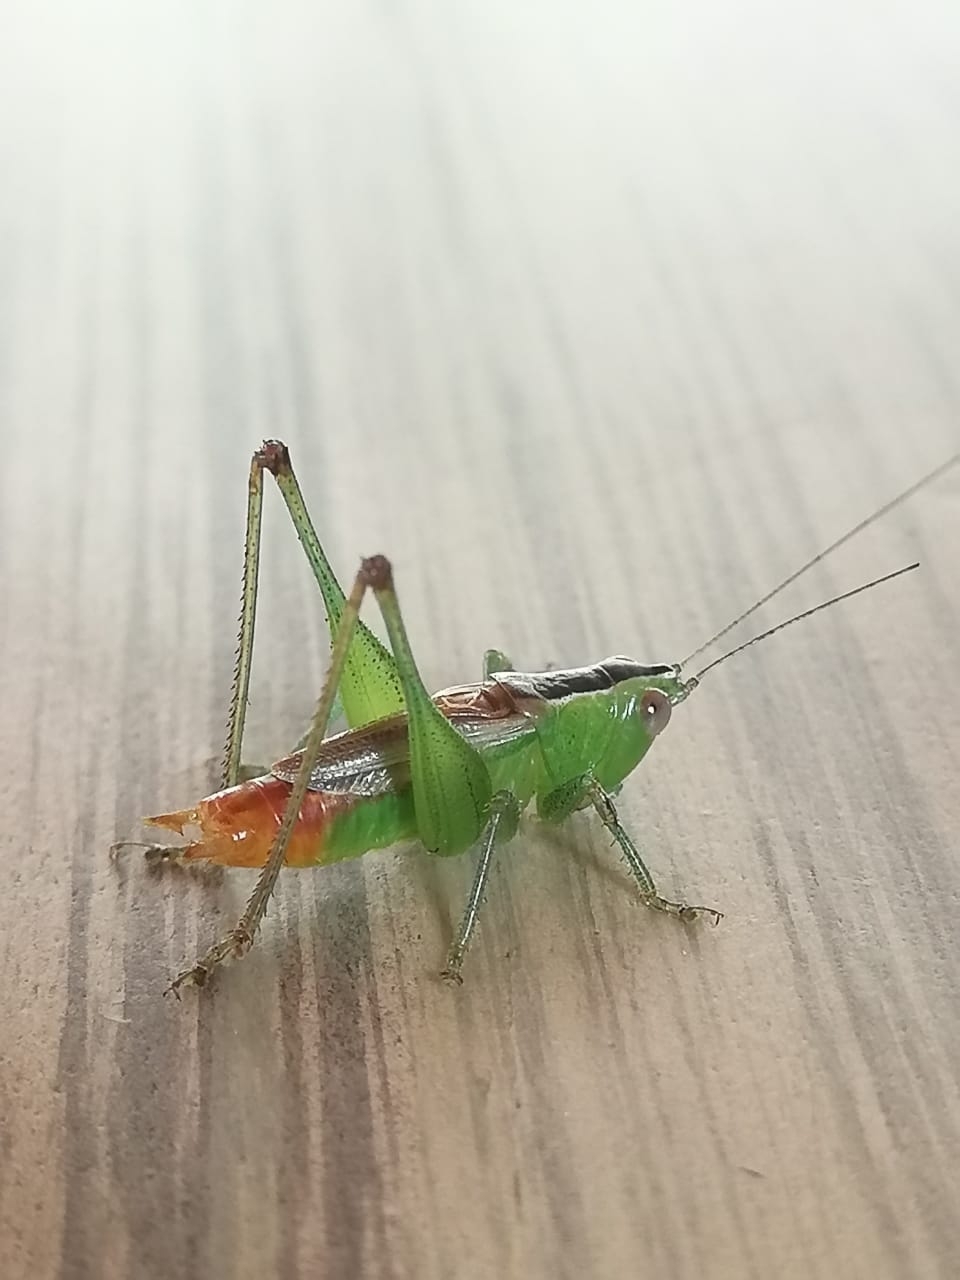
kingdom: Animalia
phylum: Arthropoda
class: Insecta
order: Orthoptera
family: Tettigoniidae
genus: Conocephalus
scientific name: Conocephalus ictus
